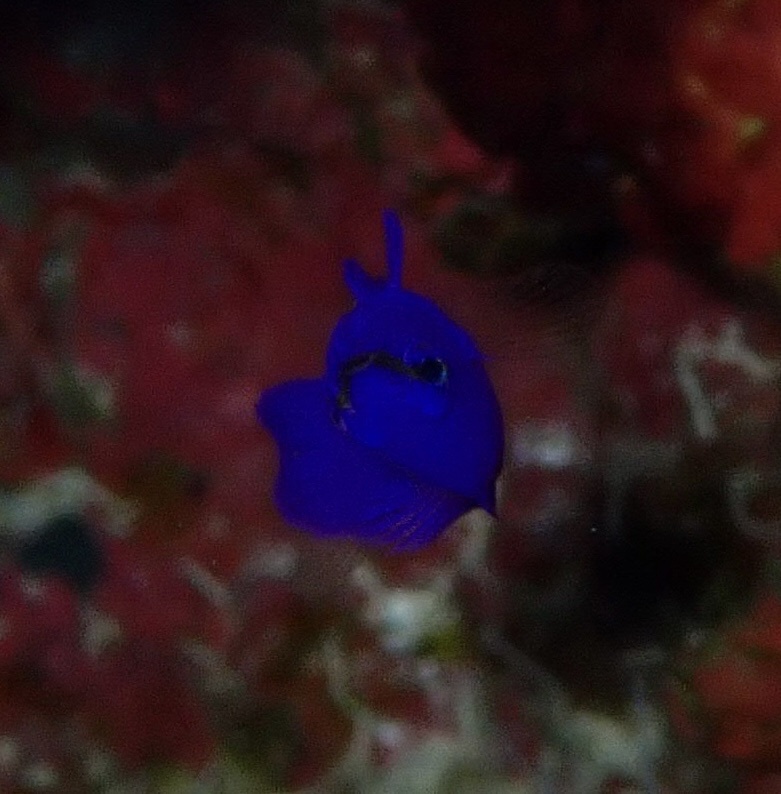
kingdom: Animalia
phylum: Chordata
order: Perciformes
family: Pseudochromidae
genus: Pseudochromis
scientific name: Pseudochromis fridmani
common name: Orchid dottyback
